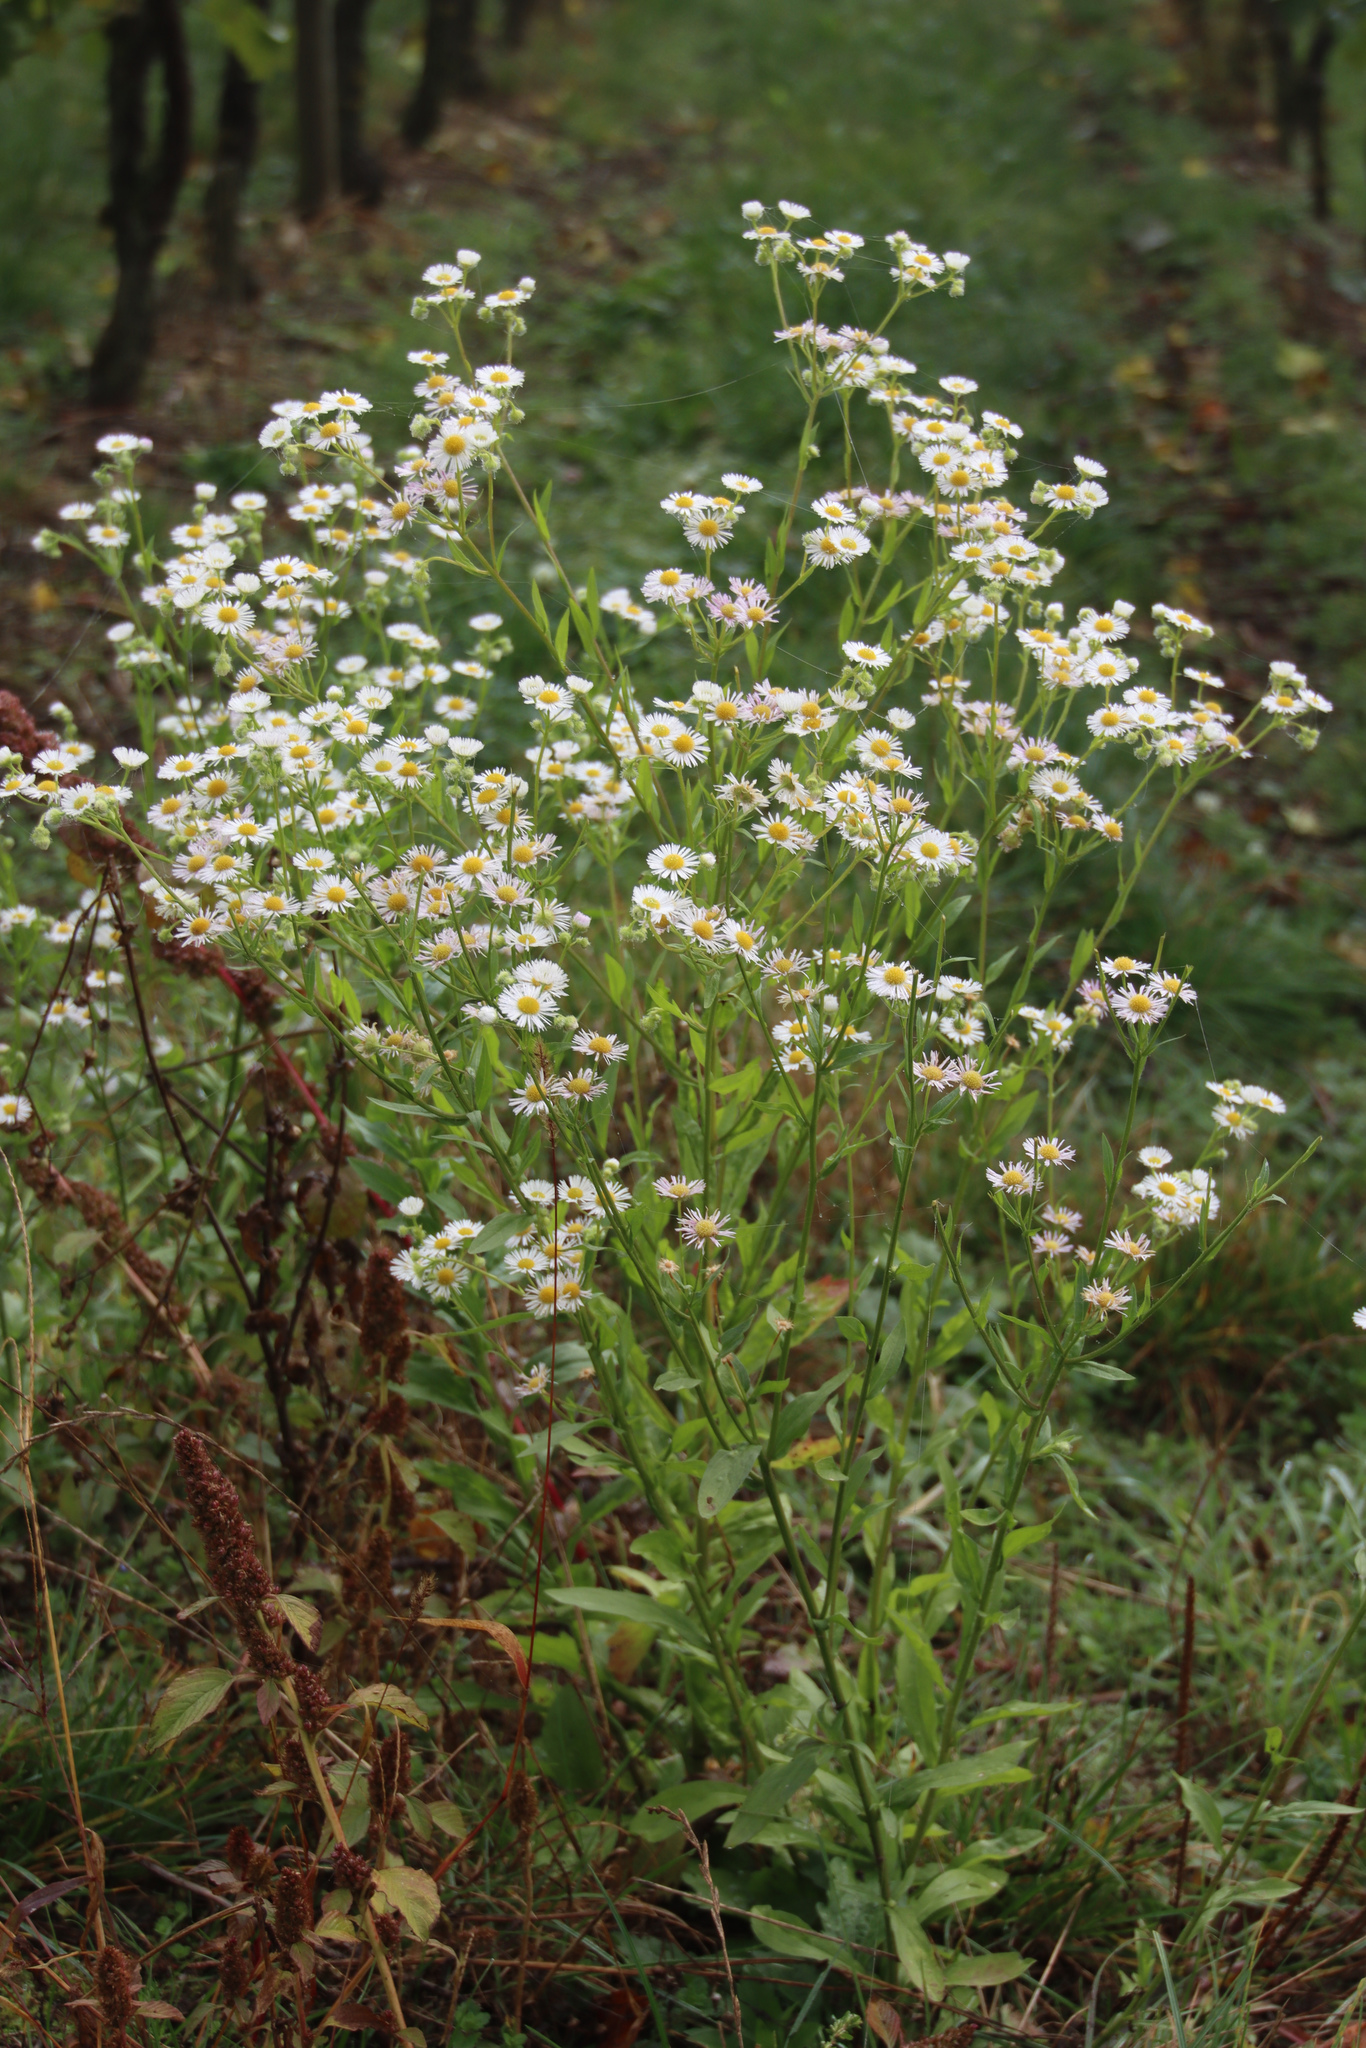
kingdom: Plantae
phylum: Tracheophyta
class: Magnoliopsida
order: Asterales
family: Asteraceae
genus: Erigeron
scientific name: Erigeron annuus
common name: Tall fleabane
